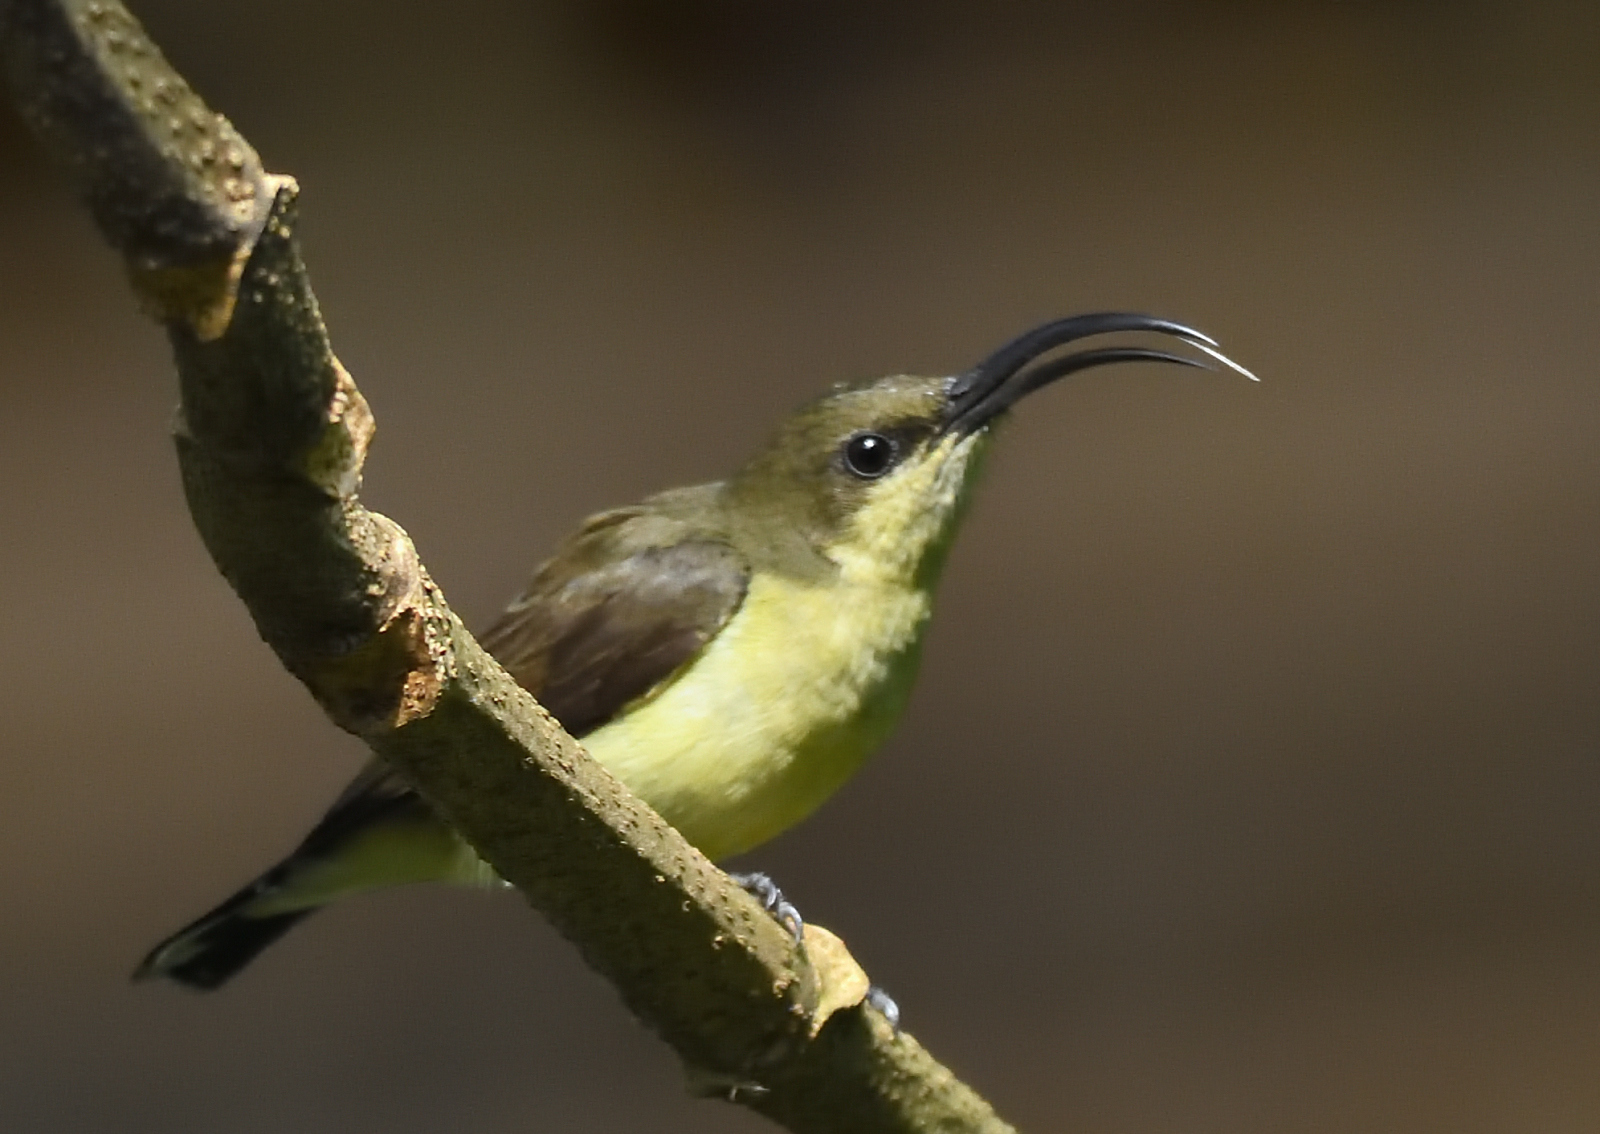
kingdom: Animalia
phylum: Chordata
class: Aves
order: Passeriformes
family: Nectariniidae
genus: Cinnyris
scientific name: Cinnyris lotenius
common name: Loten's sunbird
